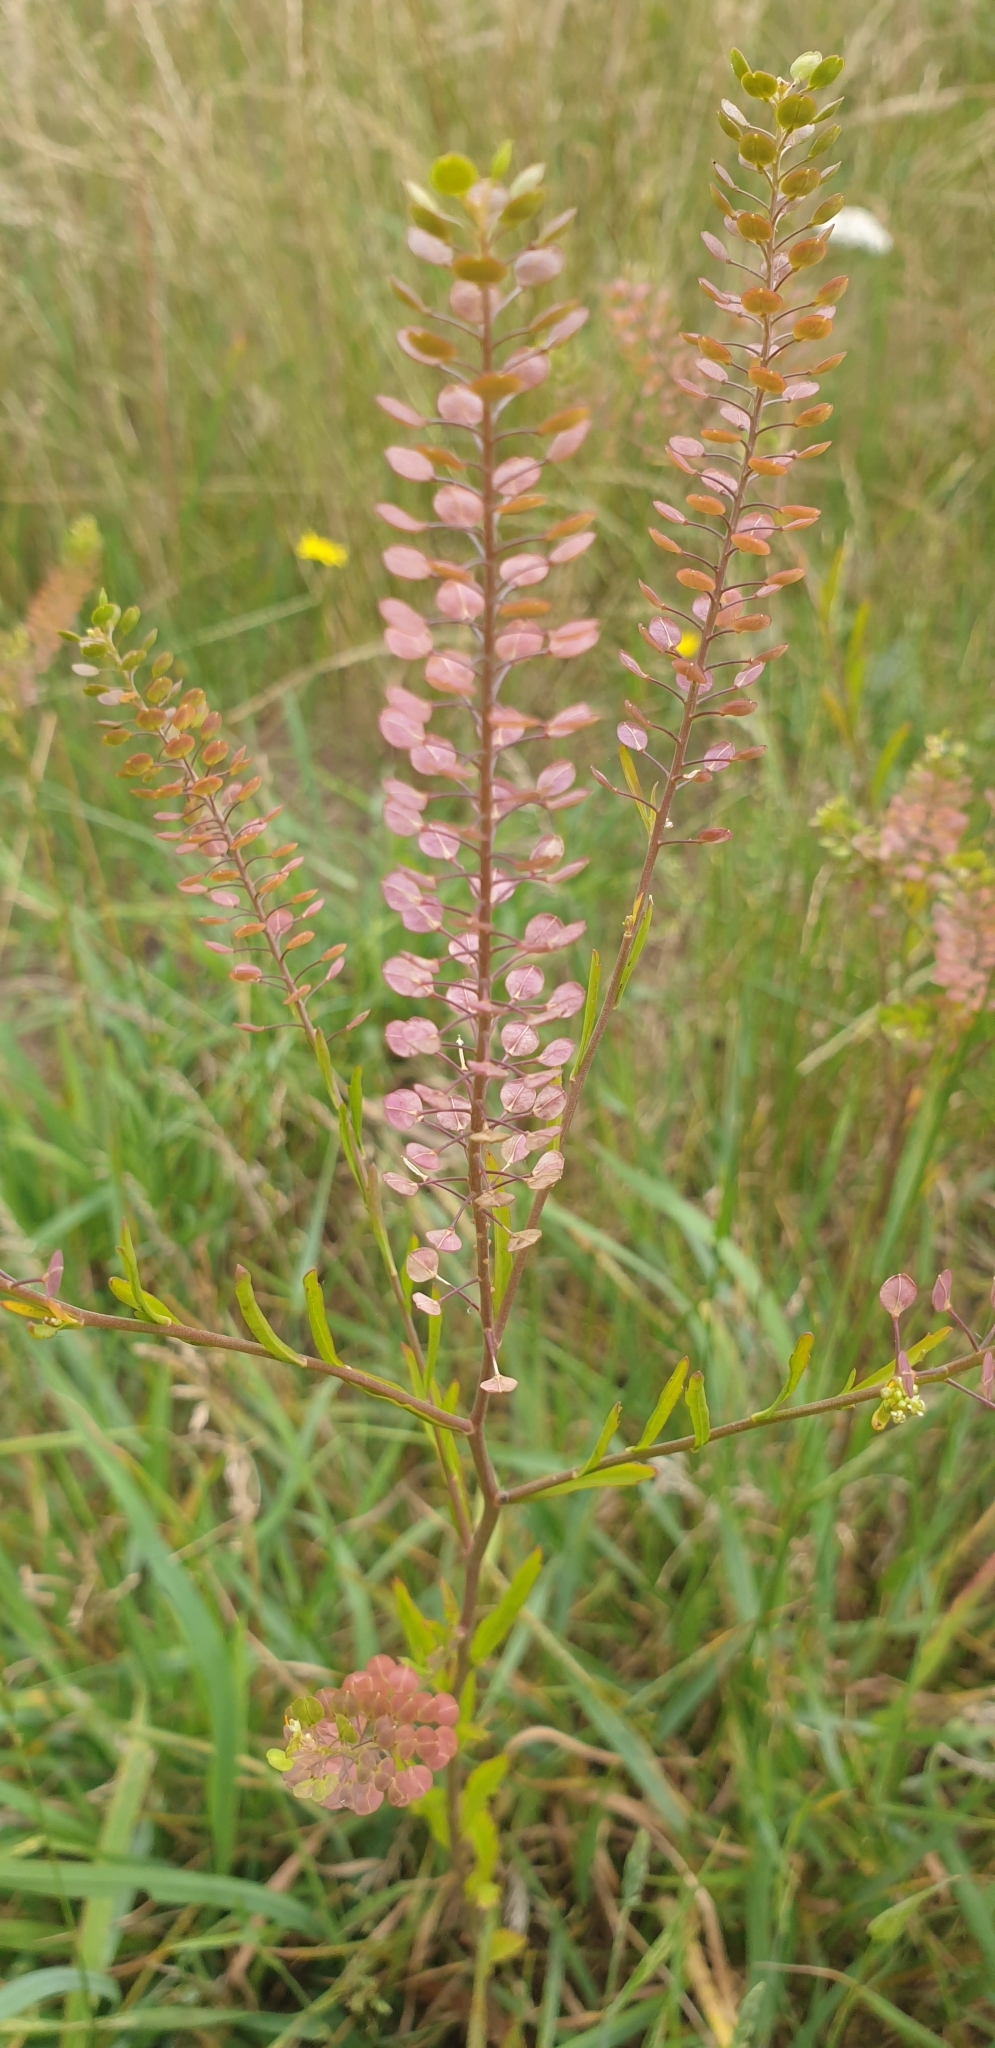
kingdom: Plantae
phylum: Tracheophyta
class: Magnoliopsida
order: Brassicales
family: Brassicaceae
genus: Lepidium
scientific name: Lepidium virginicum
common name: Least pepperwort
